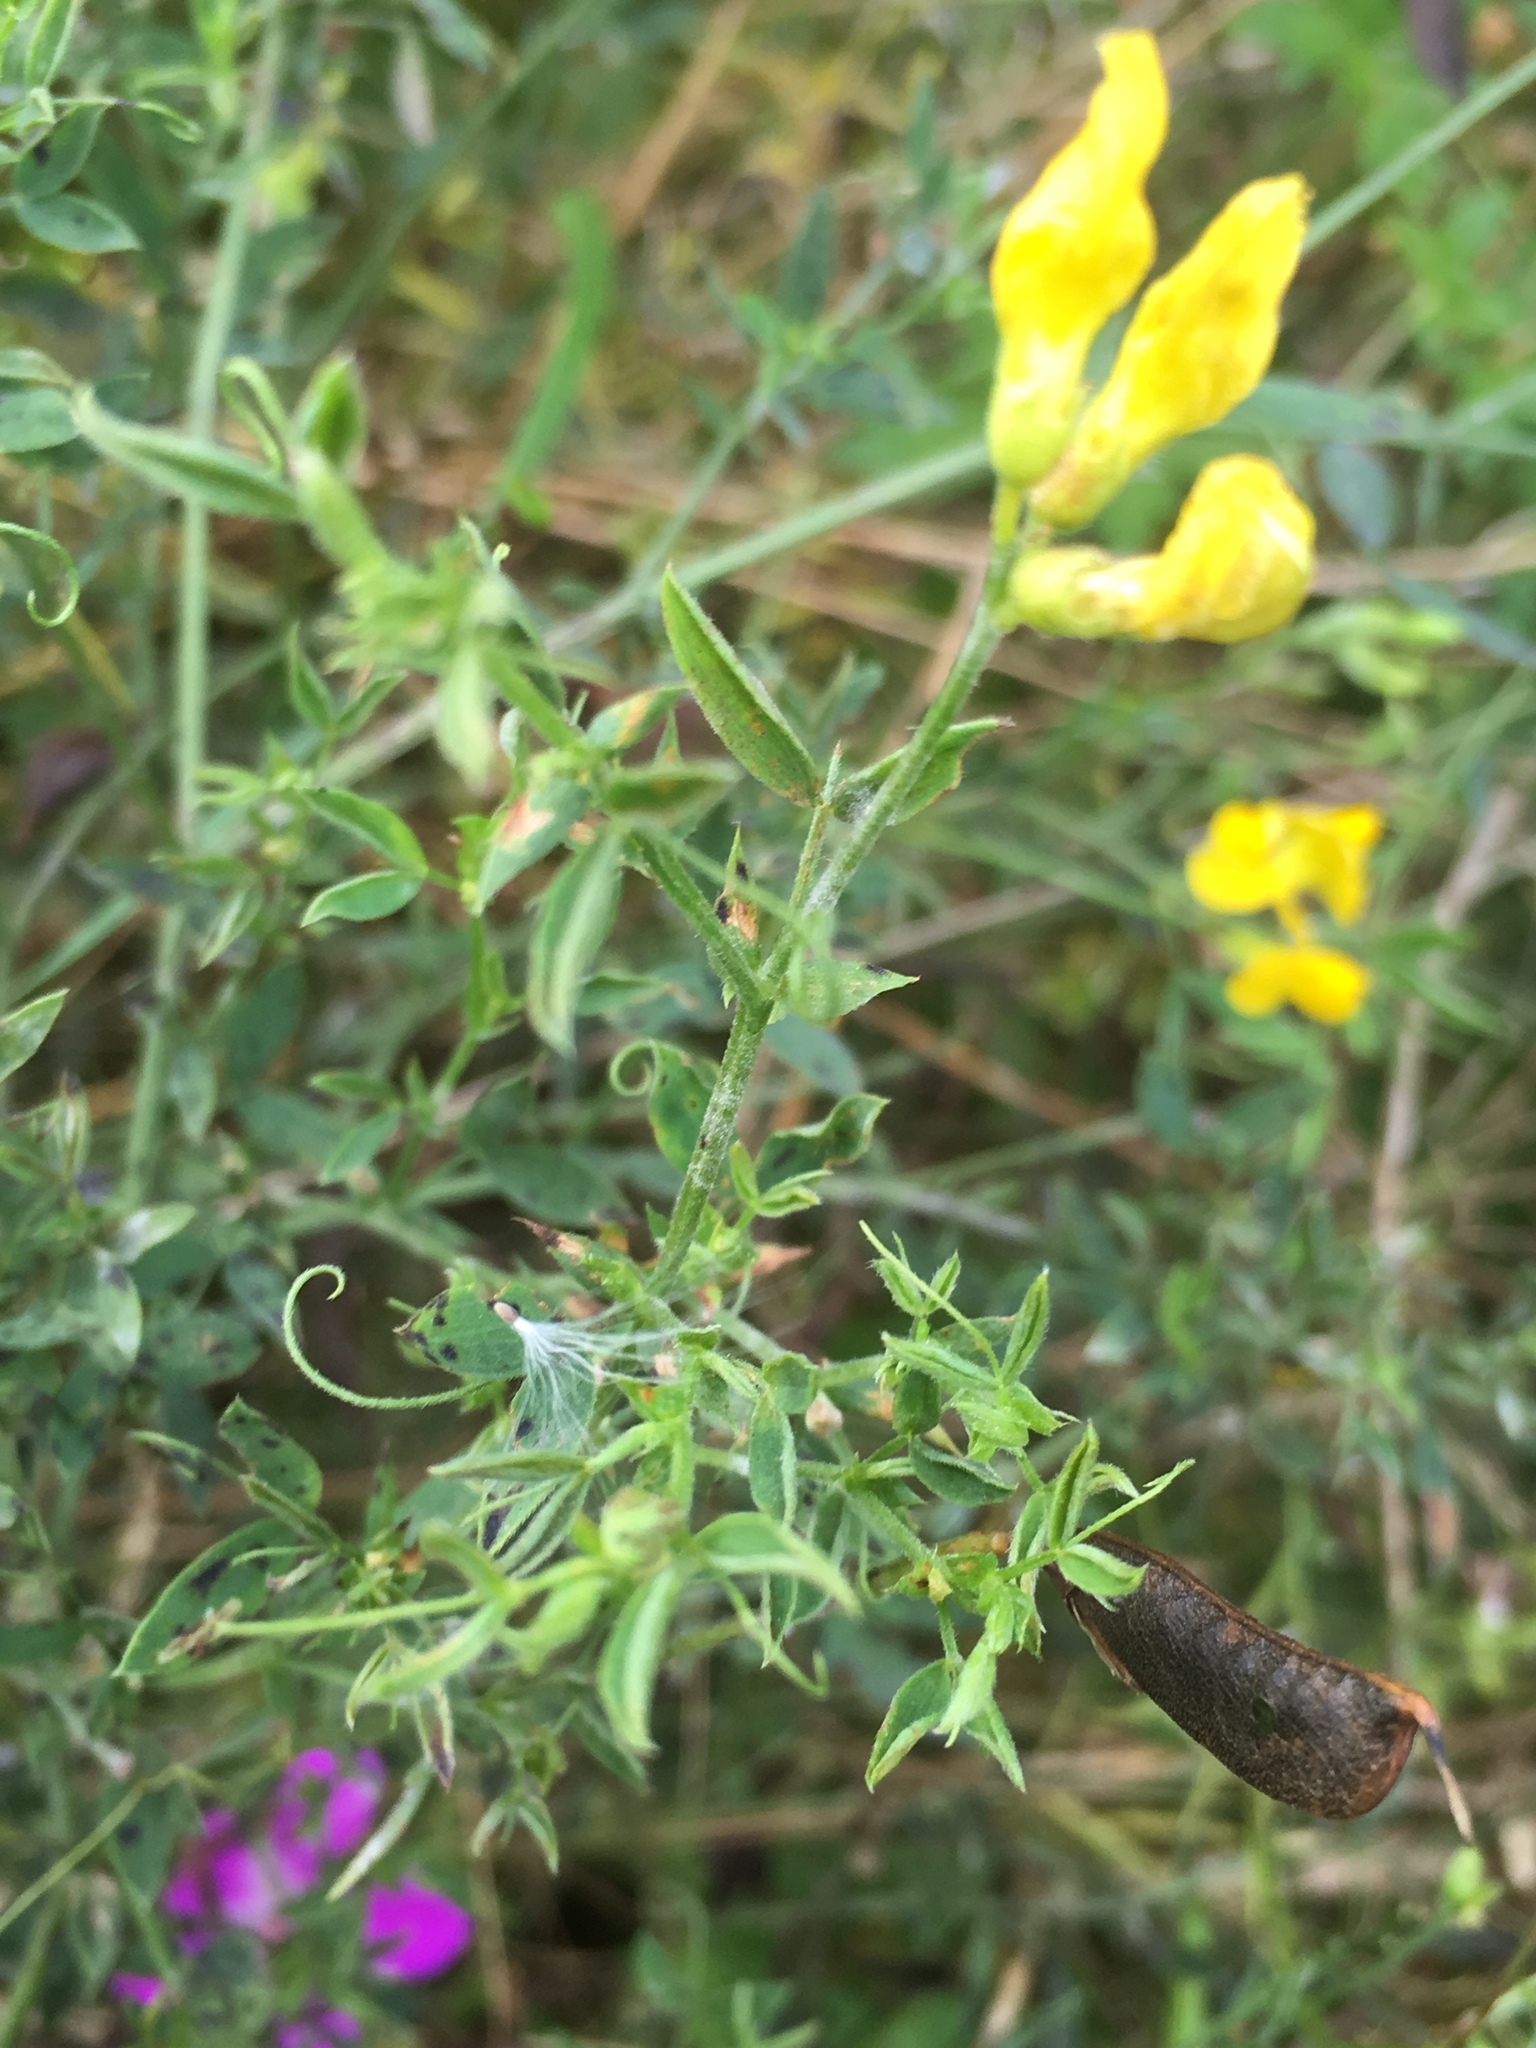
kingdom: Plantae
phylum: Tracheophyta
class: Magnoliopsida
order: Fabales
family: Fabaceae
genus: Lathyrus
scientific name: Lathyrus pratensis
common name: Meadow vetchling
